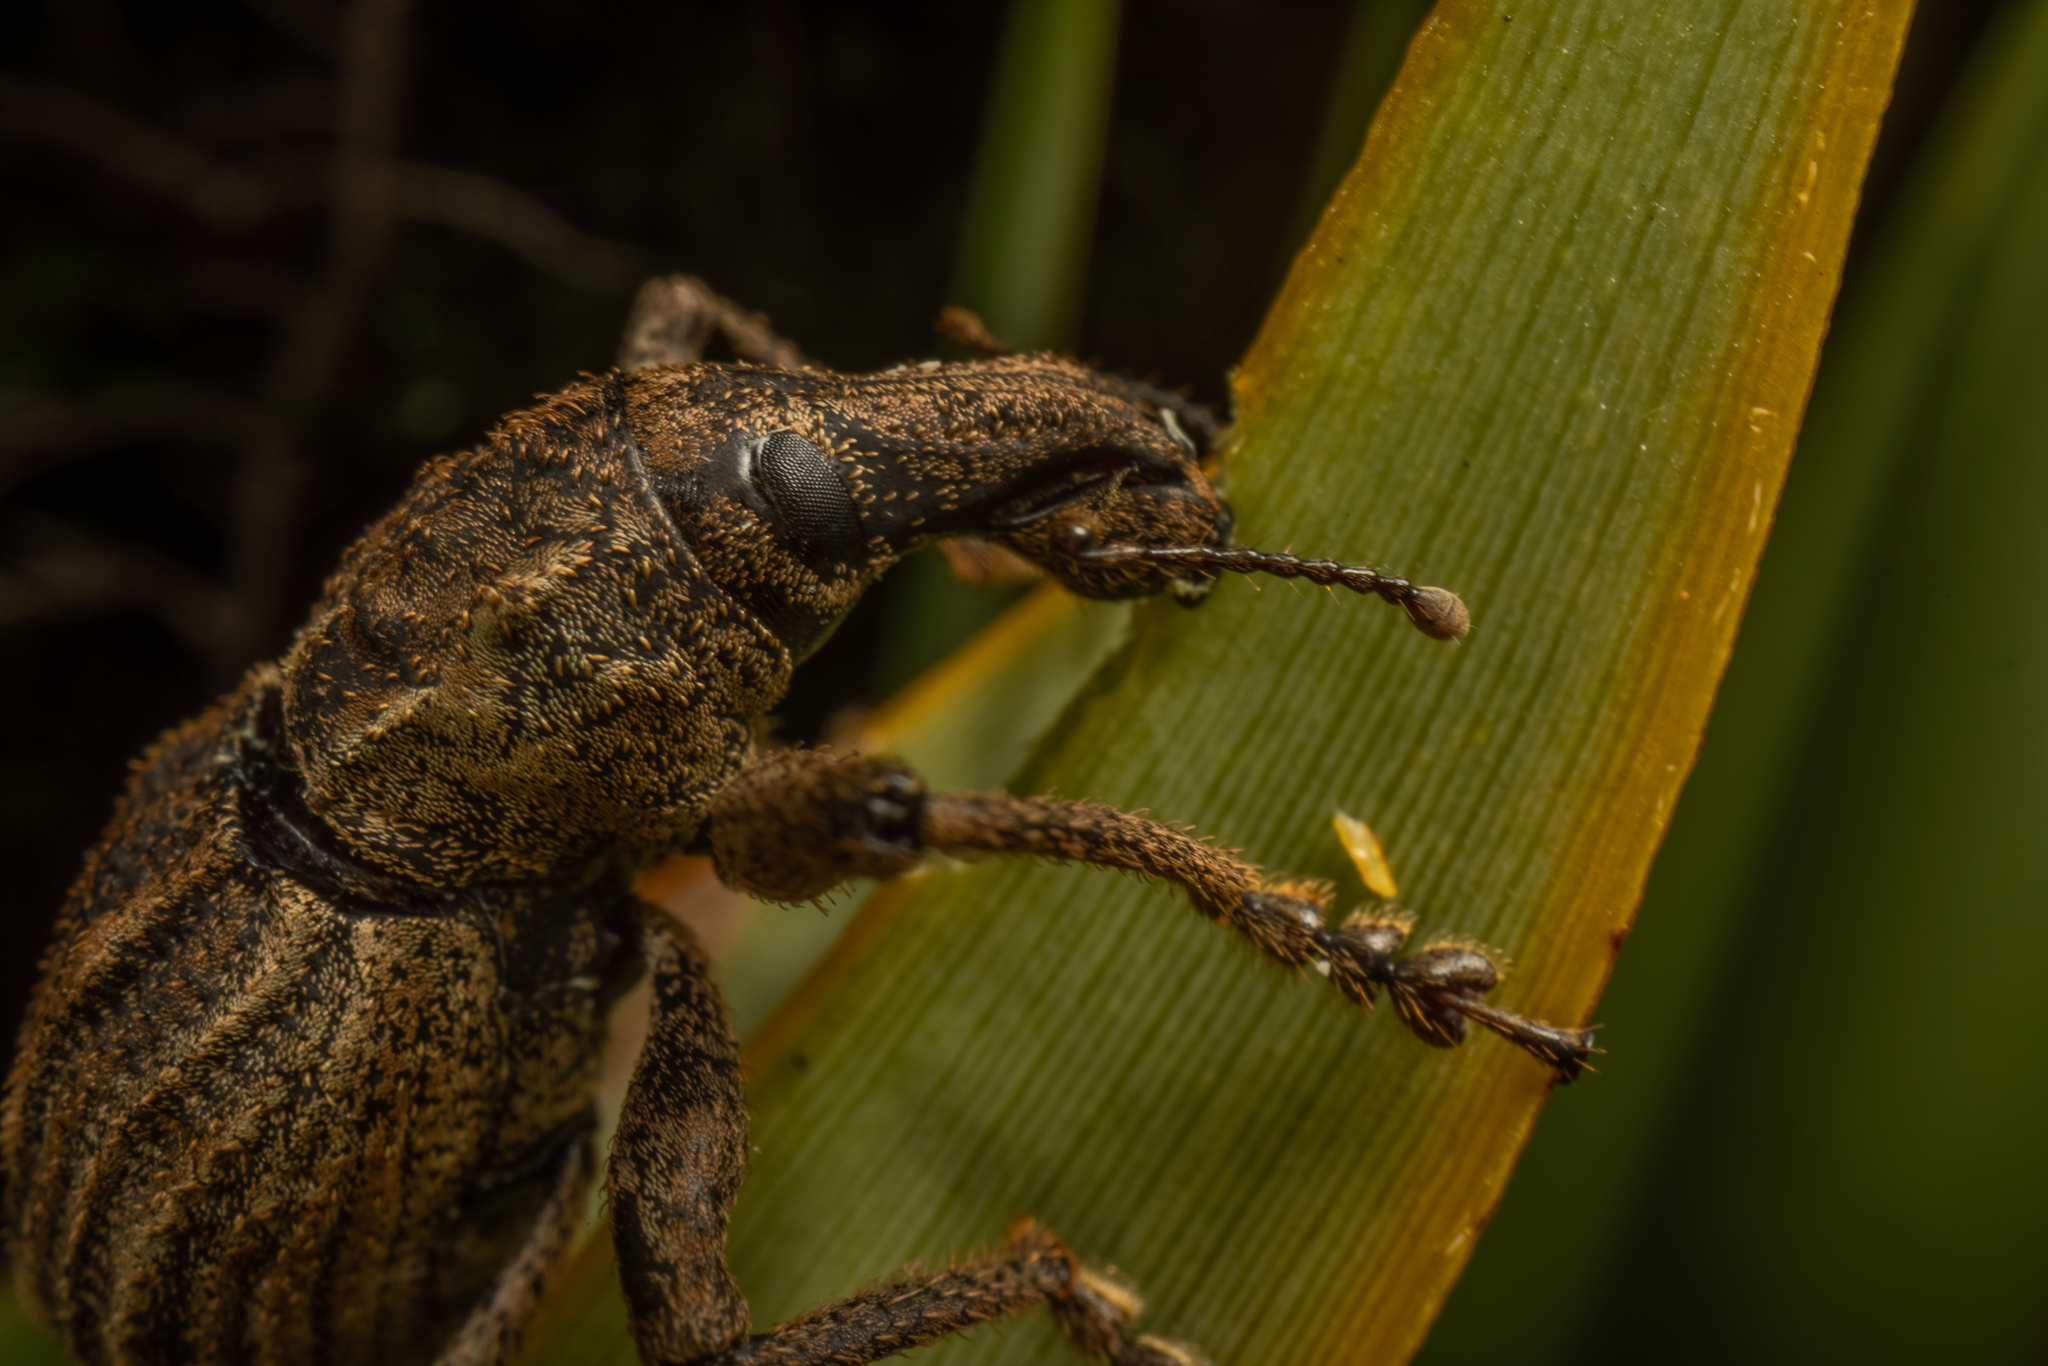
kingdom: Animalia
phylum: Arthropoda
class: Insecta
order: Coleoptera
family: Curculionidae
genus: Anagotus
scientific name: Anagotus fairburni
